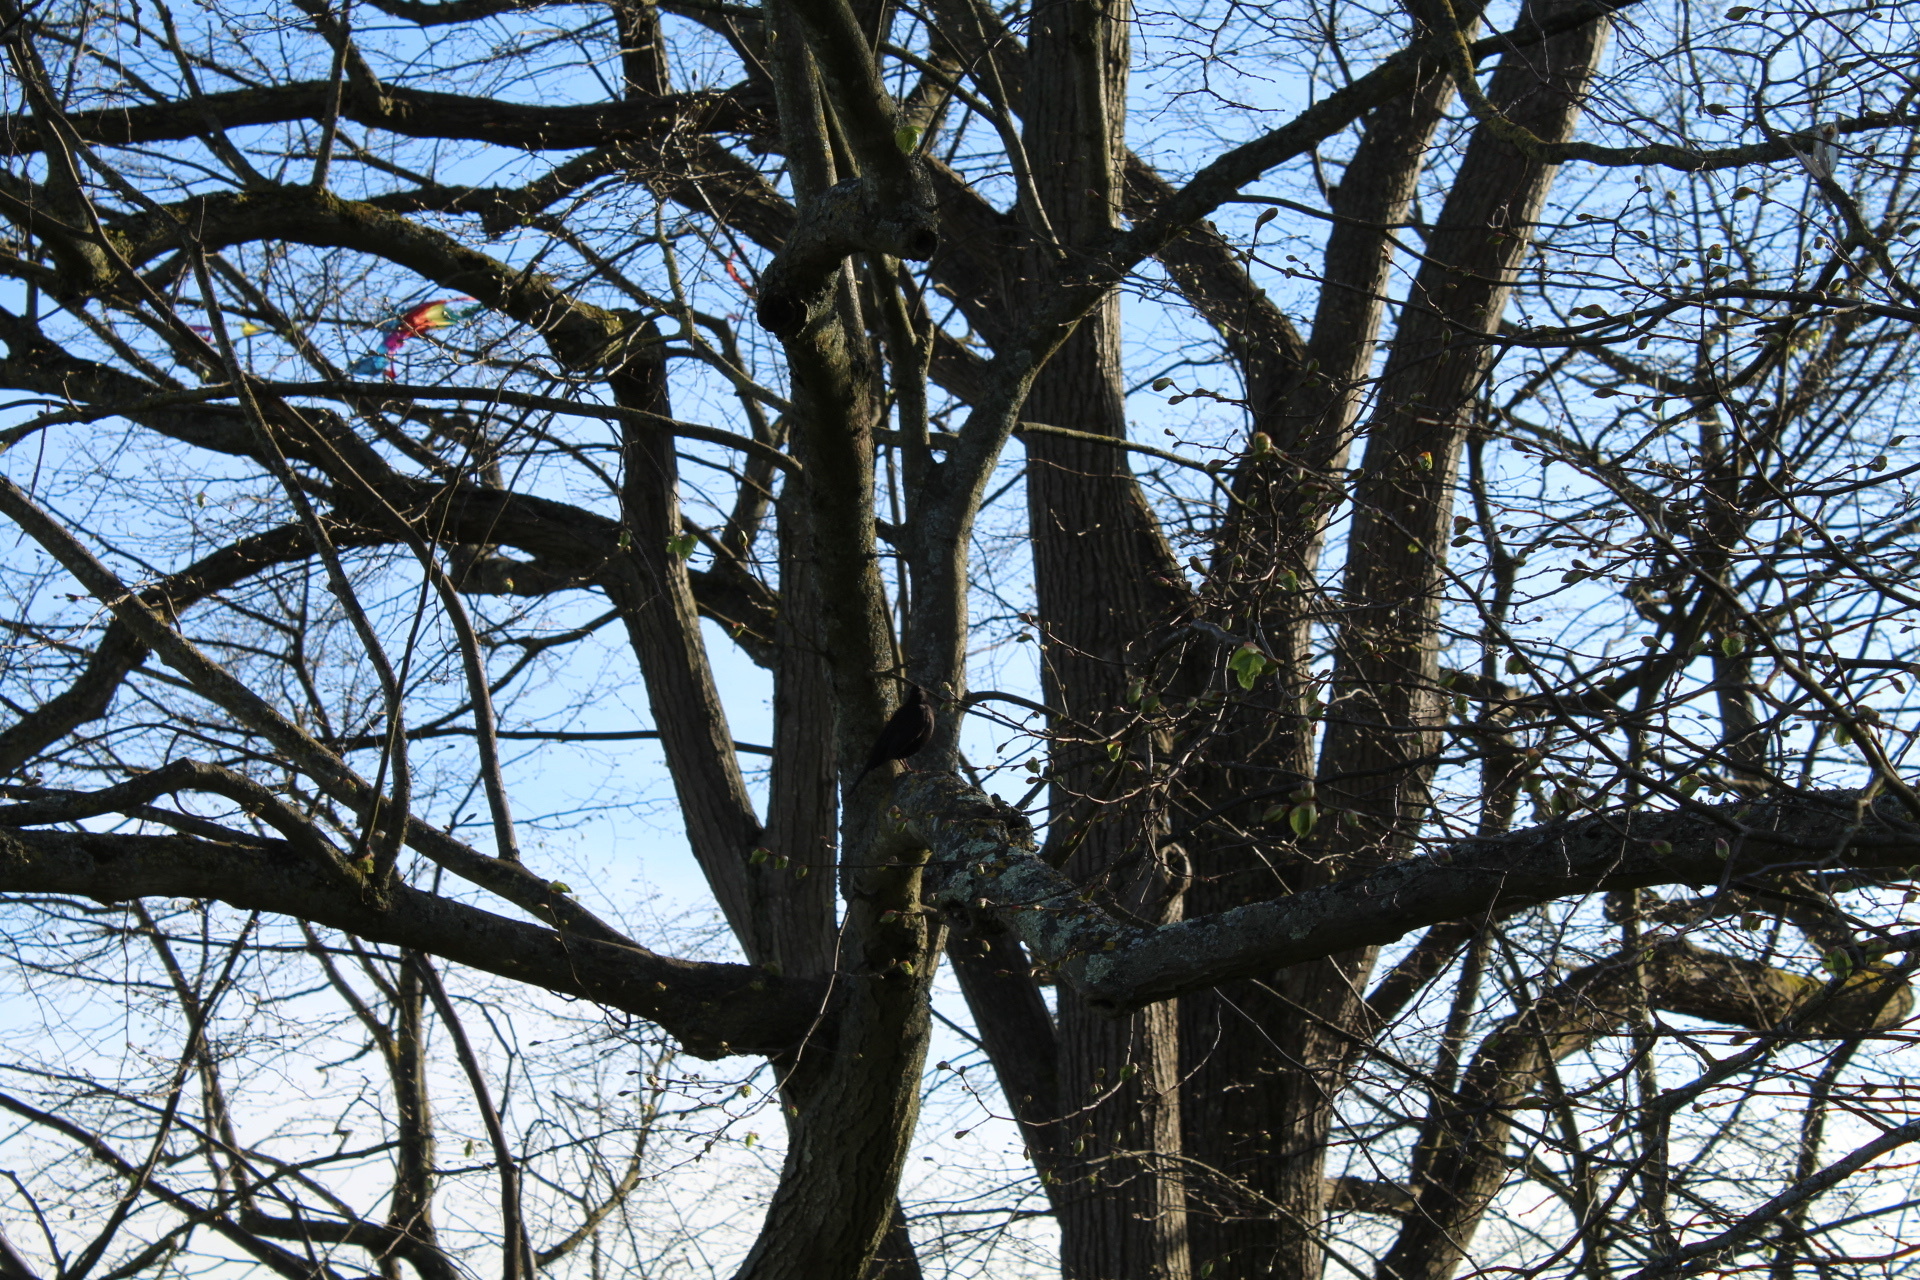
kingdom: Animalia
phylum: Chordata
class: Aves
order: Passeriformes
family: Turdidae
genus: Turdus
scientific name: Turdus merula
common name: Common blackbird
